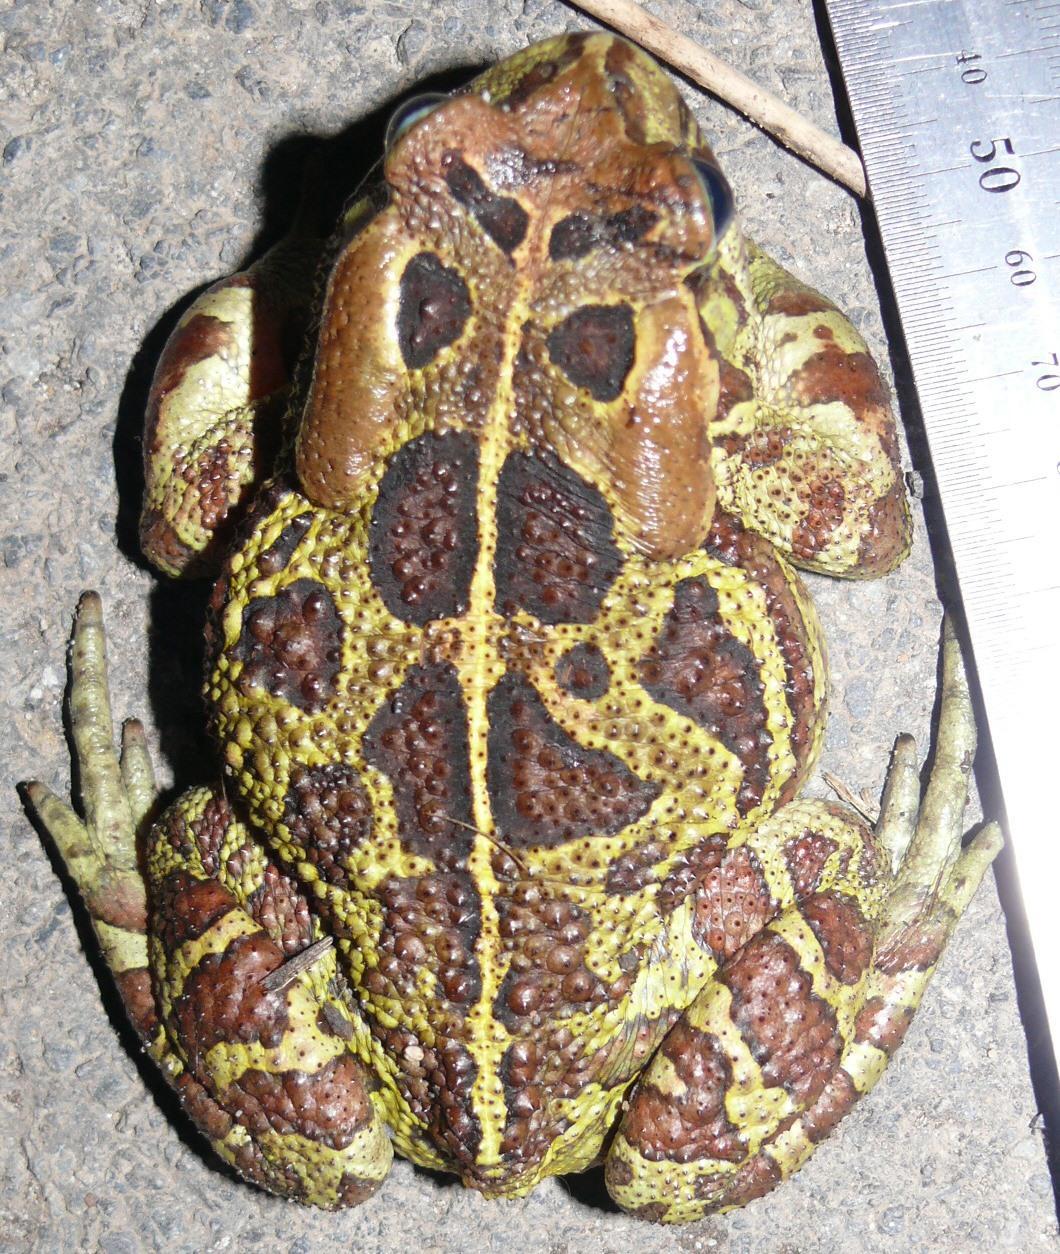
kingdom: Animalia
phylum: Chordata
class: Amphibia
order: Anura
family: Bufonidae
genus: Sclerophrys
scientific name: Sclerophrys pantherina
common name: Panther toad
